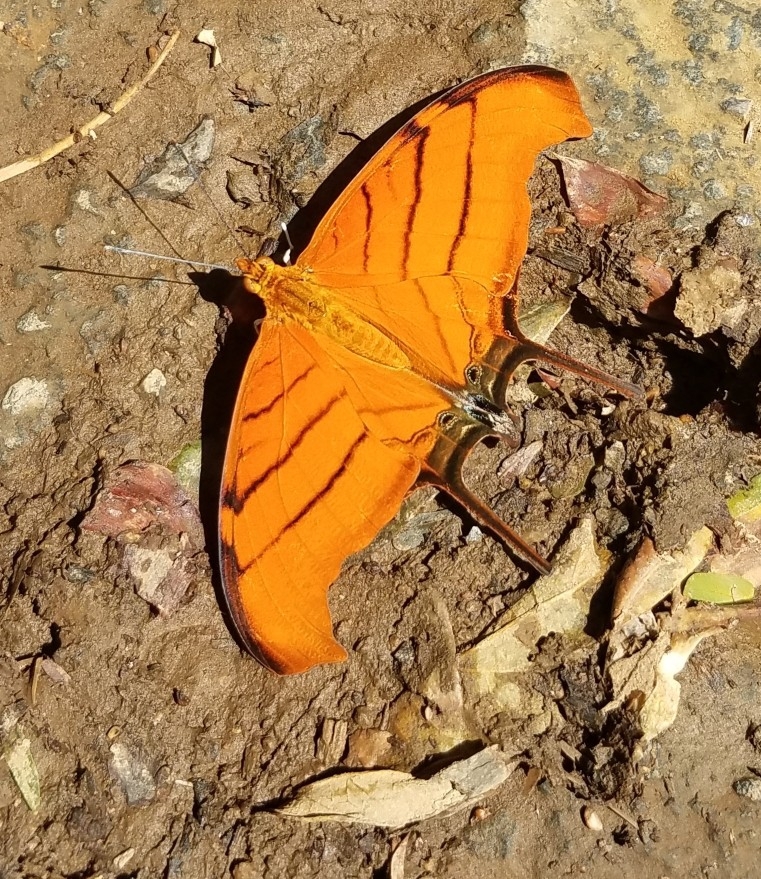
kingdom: Animalia
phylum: Arthropoda
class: Insecta
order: Lepidoptera
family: Nymphalidae
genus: Marpesia
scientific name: Marpesia petreus
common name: Red dagger wing
